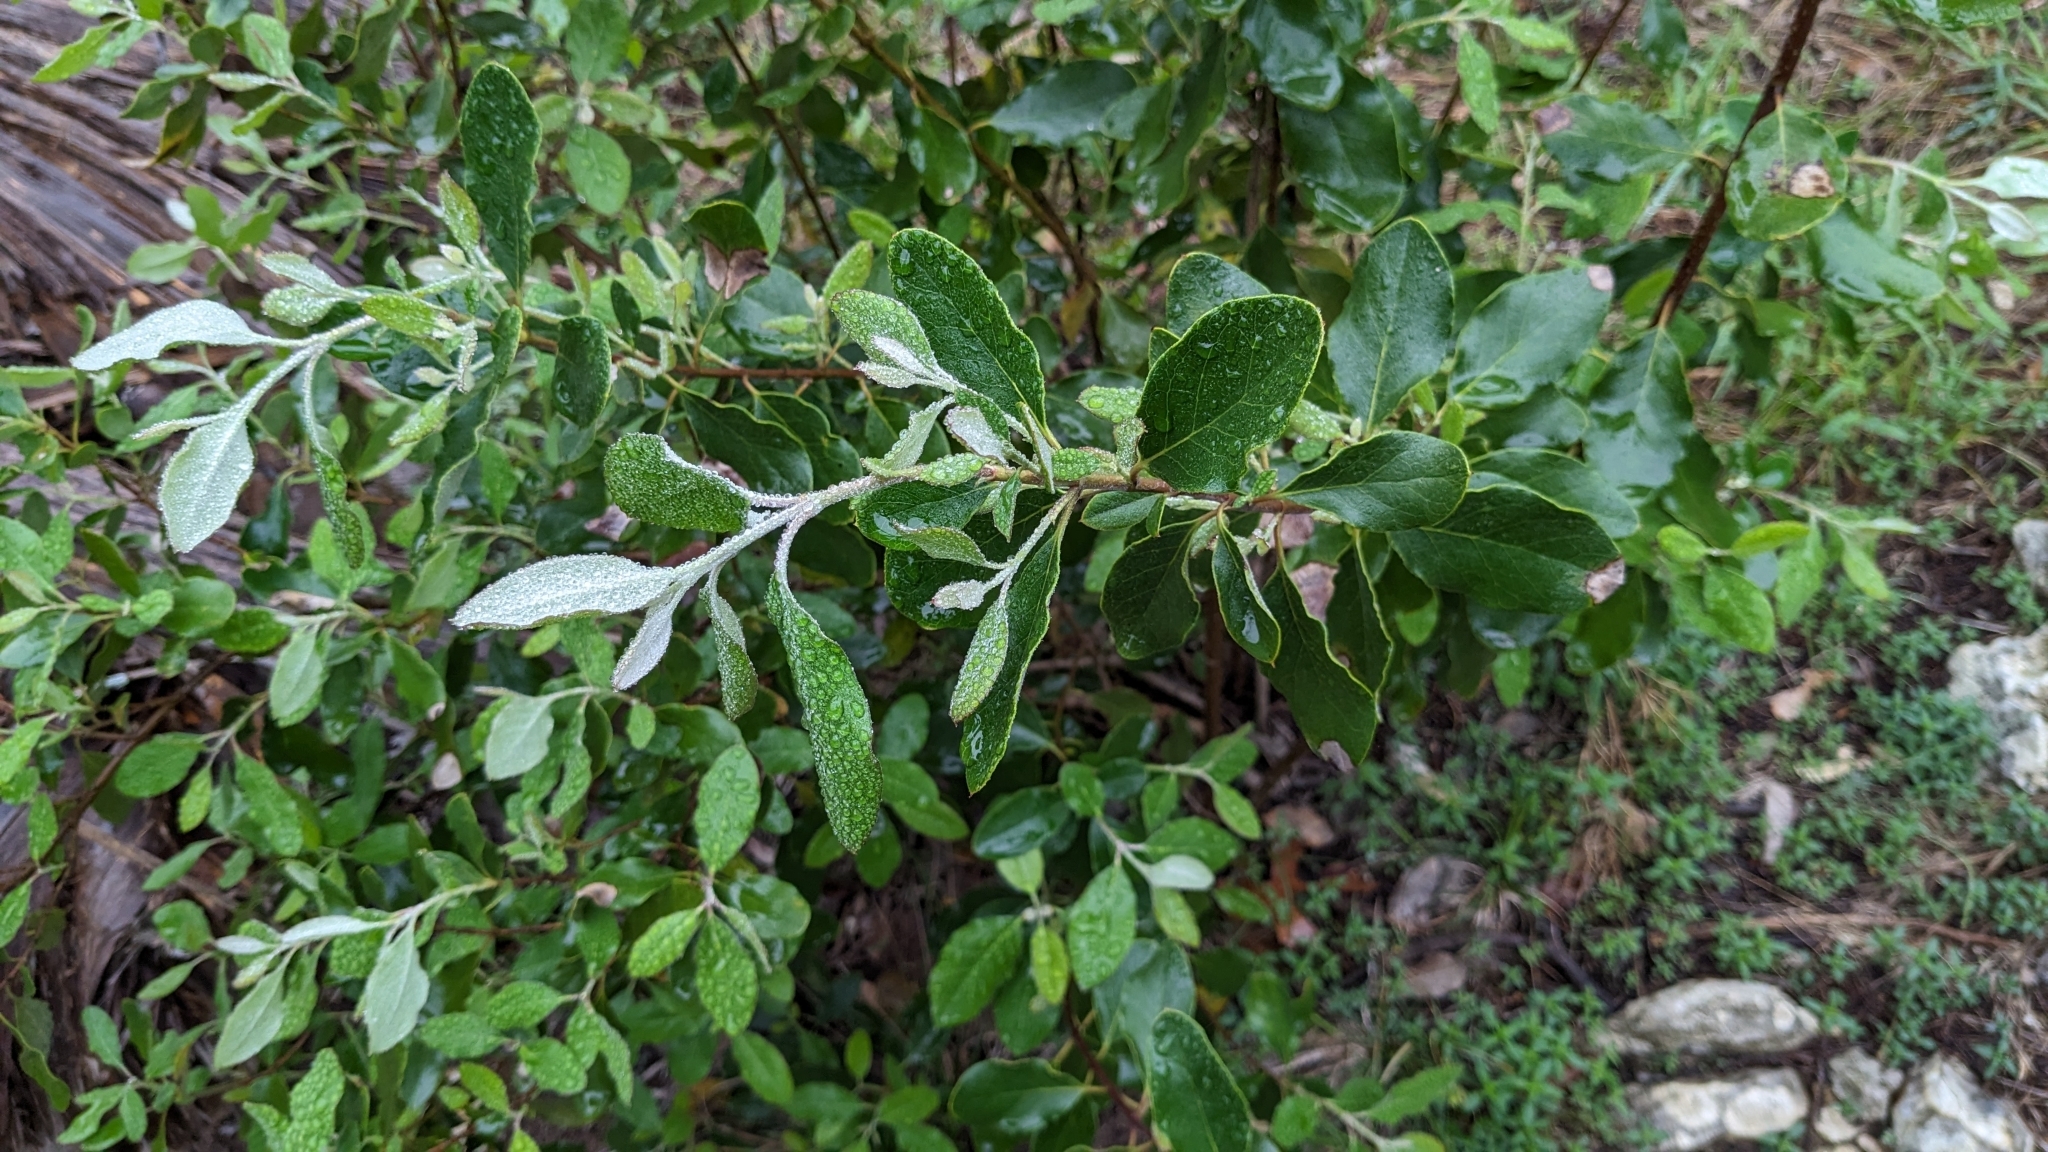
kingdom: Plantae
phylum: Tracheophyta
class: Magnoliopsida
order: Garryales
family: Garryaceae
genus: Garrya
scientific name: Garrya lindheimeri
